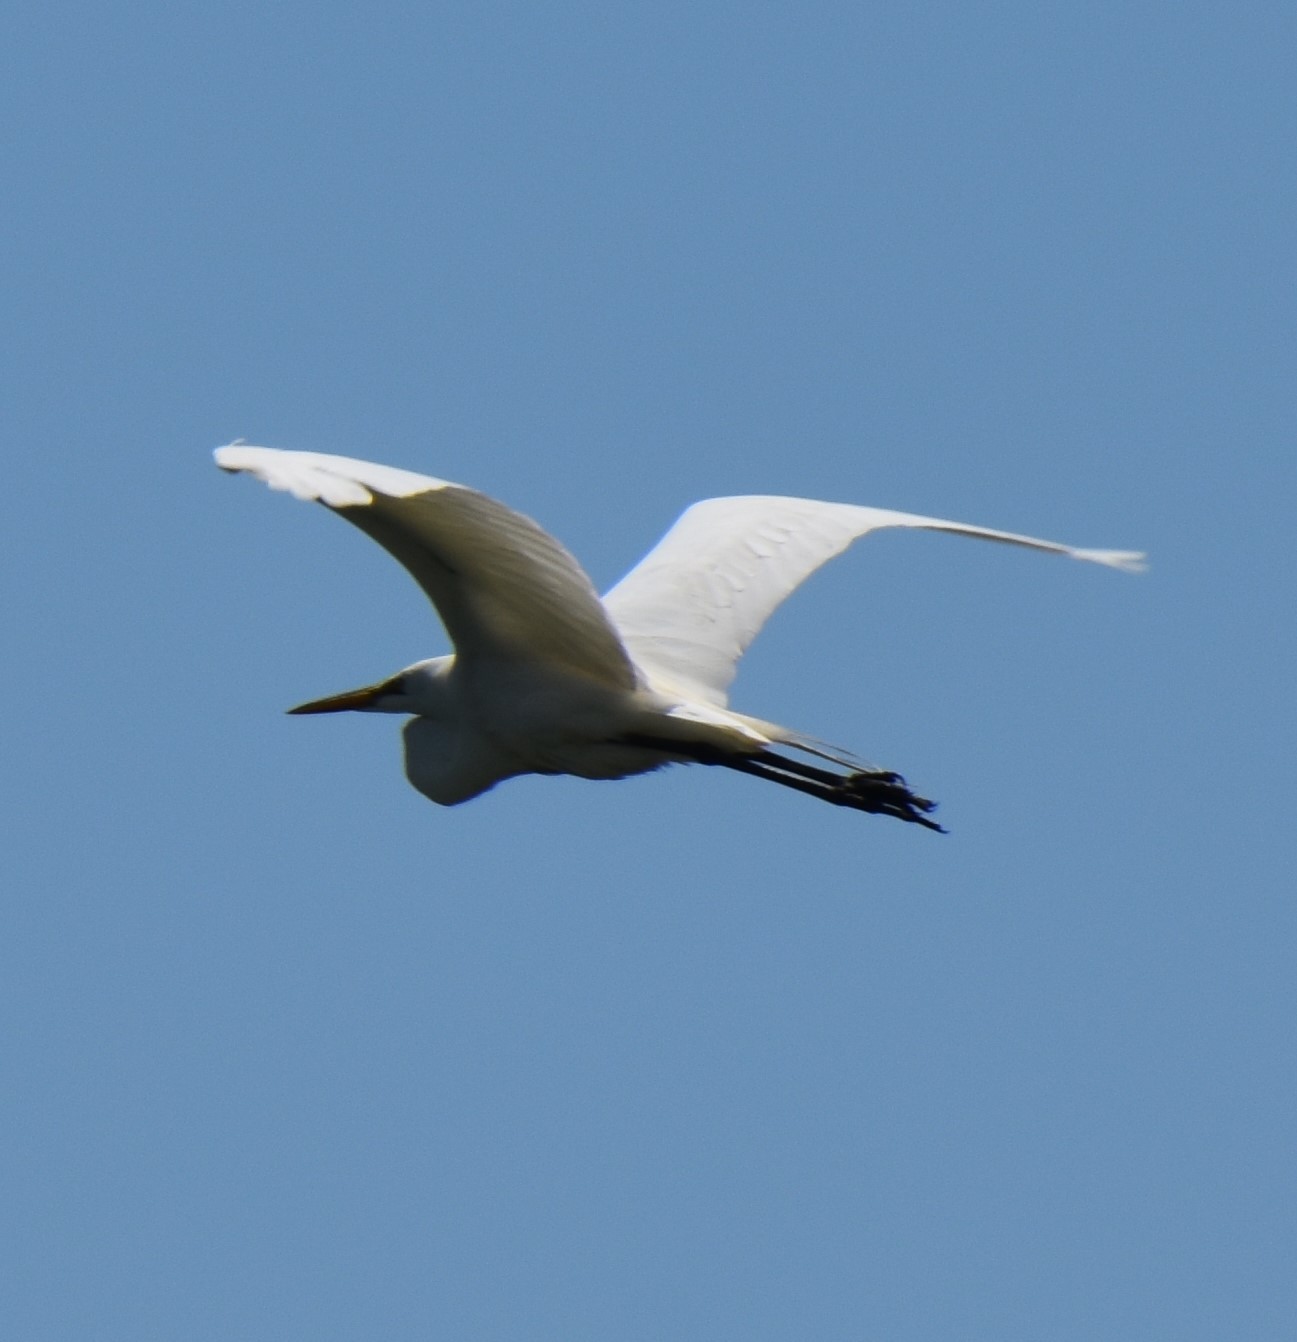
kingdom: Animalia
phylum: Chordata
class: Aves
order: Pelecaniformes
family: Ardeidae
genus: Ardea
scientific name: Ardea alba
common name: Great egret
